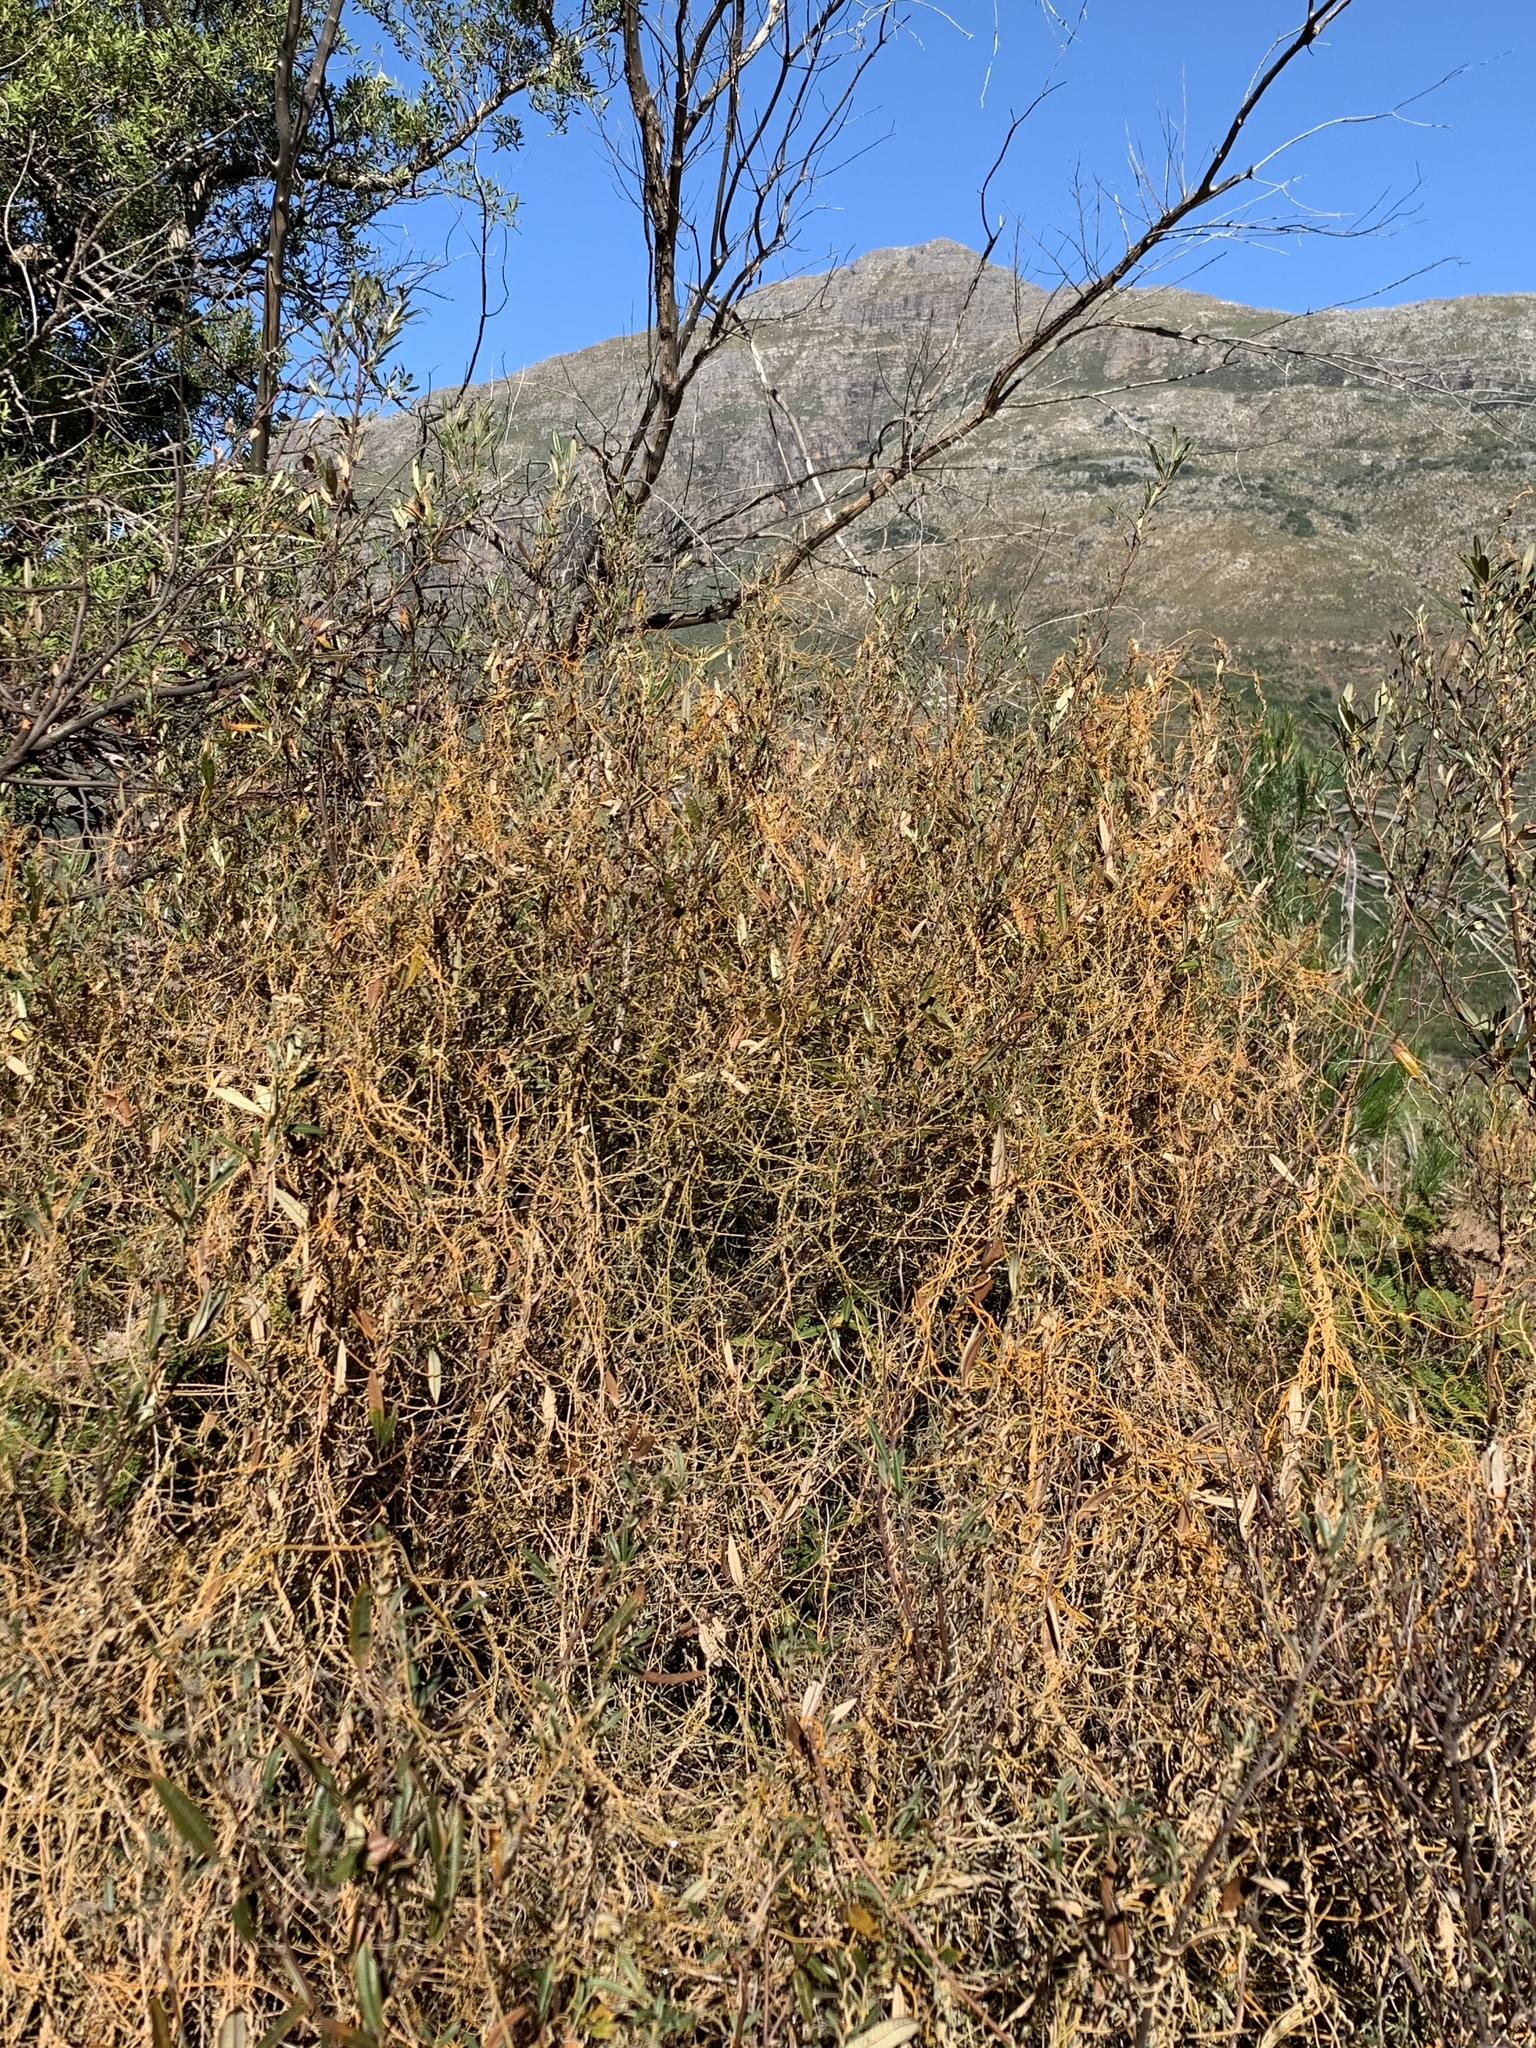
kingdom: Plantae
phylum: Tracheophyta
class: Magnoliopsida
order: Laurales
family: Lauraceae
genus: Cassytha
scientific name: Cassytha ciliolata
